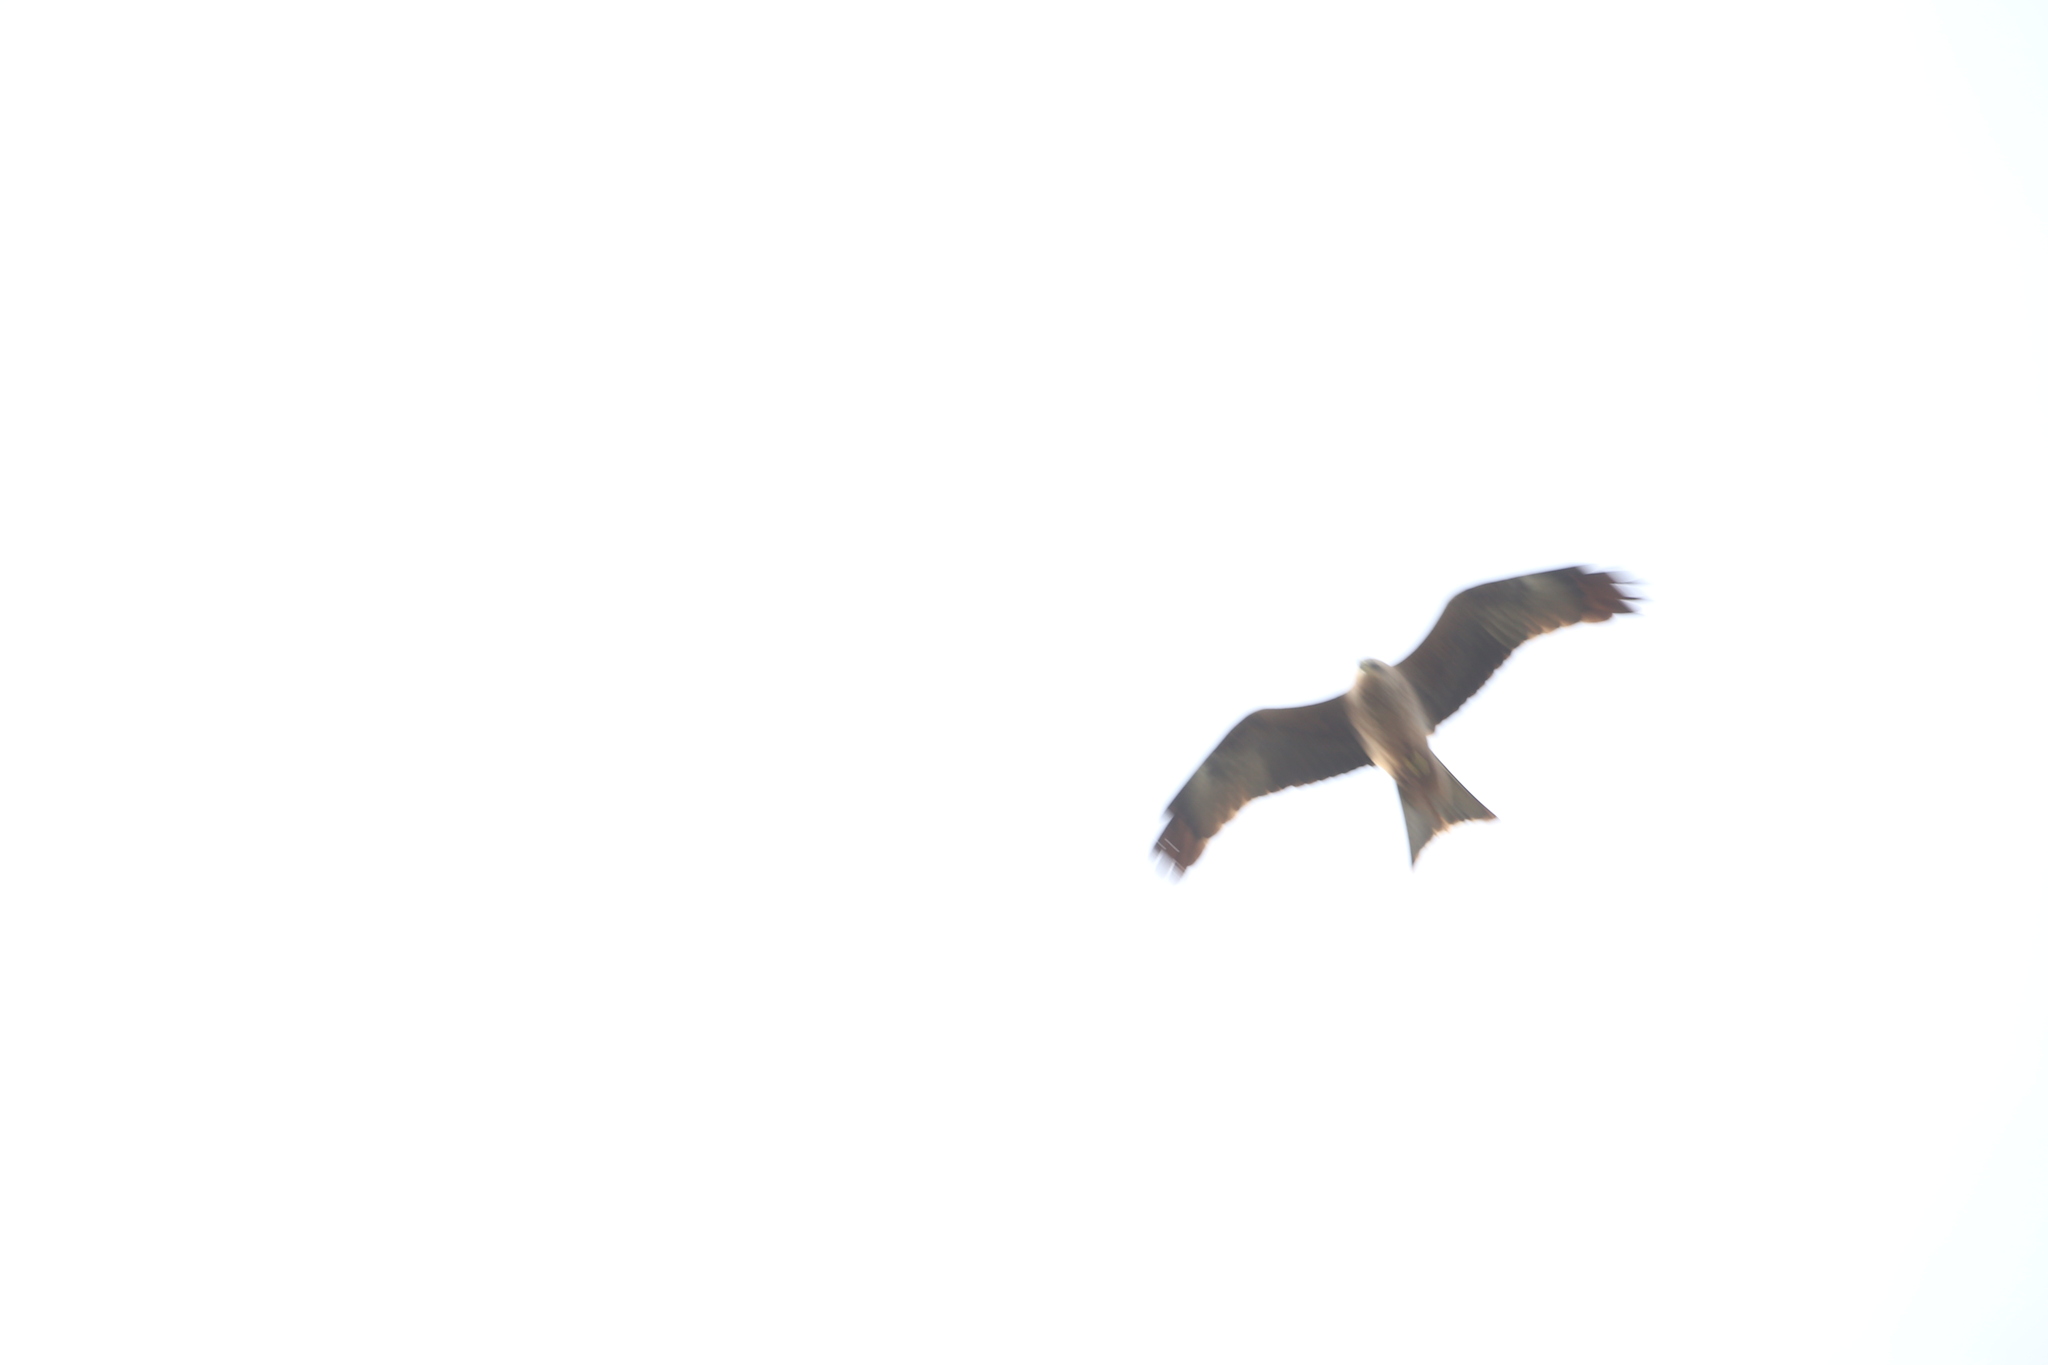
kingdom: Animalia
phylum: Chordata
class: Aves
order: Accipitriformes
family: Accipitridae
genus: Milvus
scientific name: Milvus migrans
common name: Black kite
